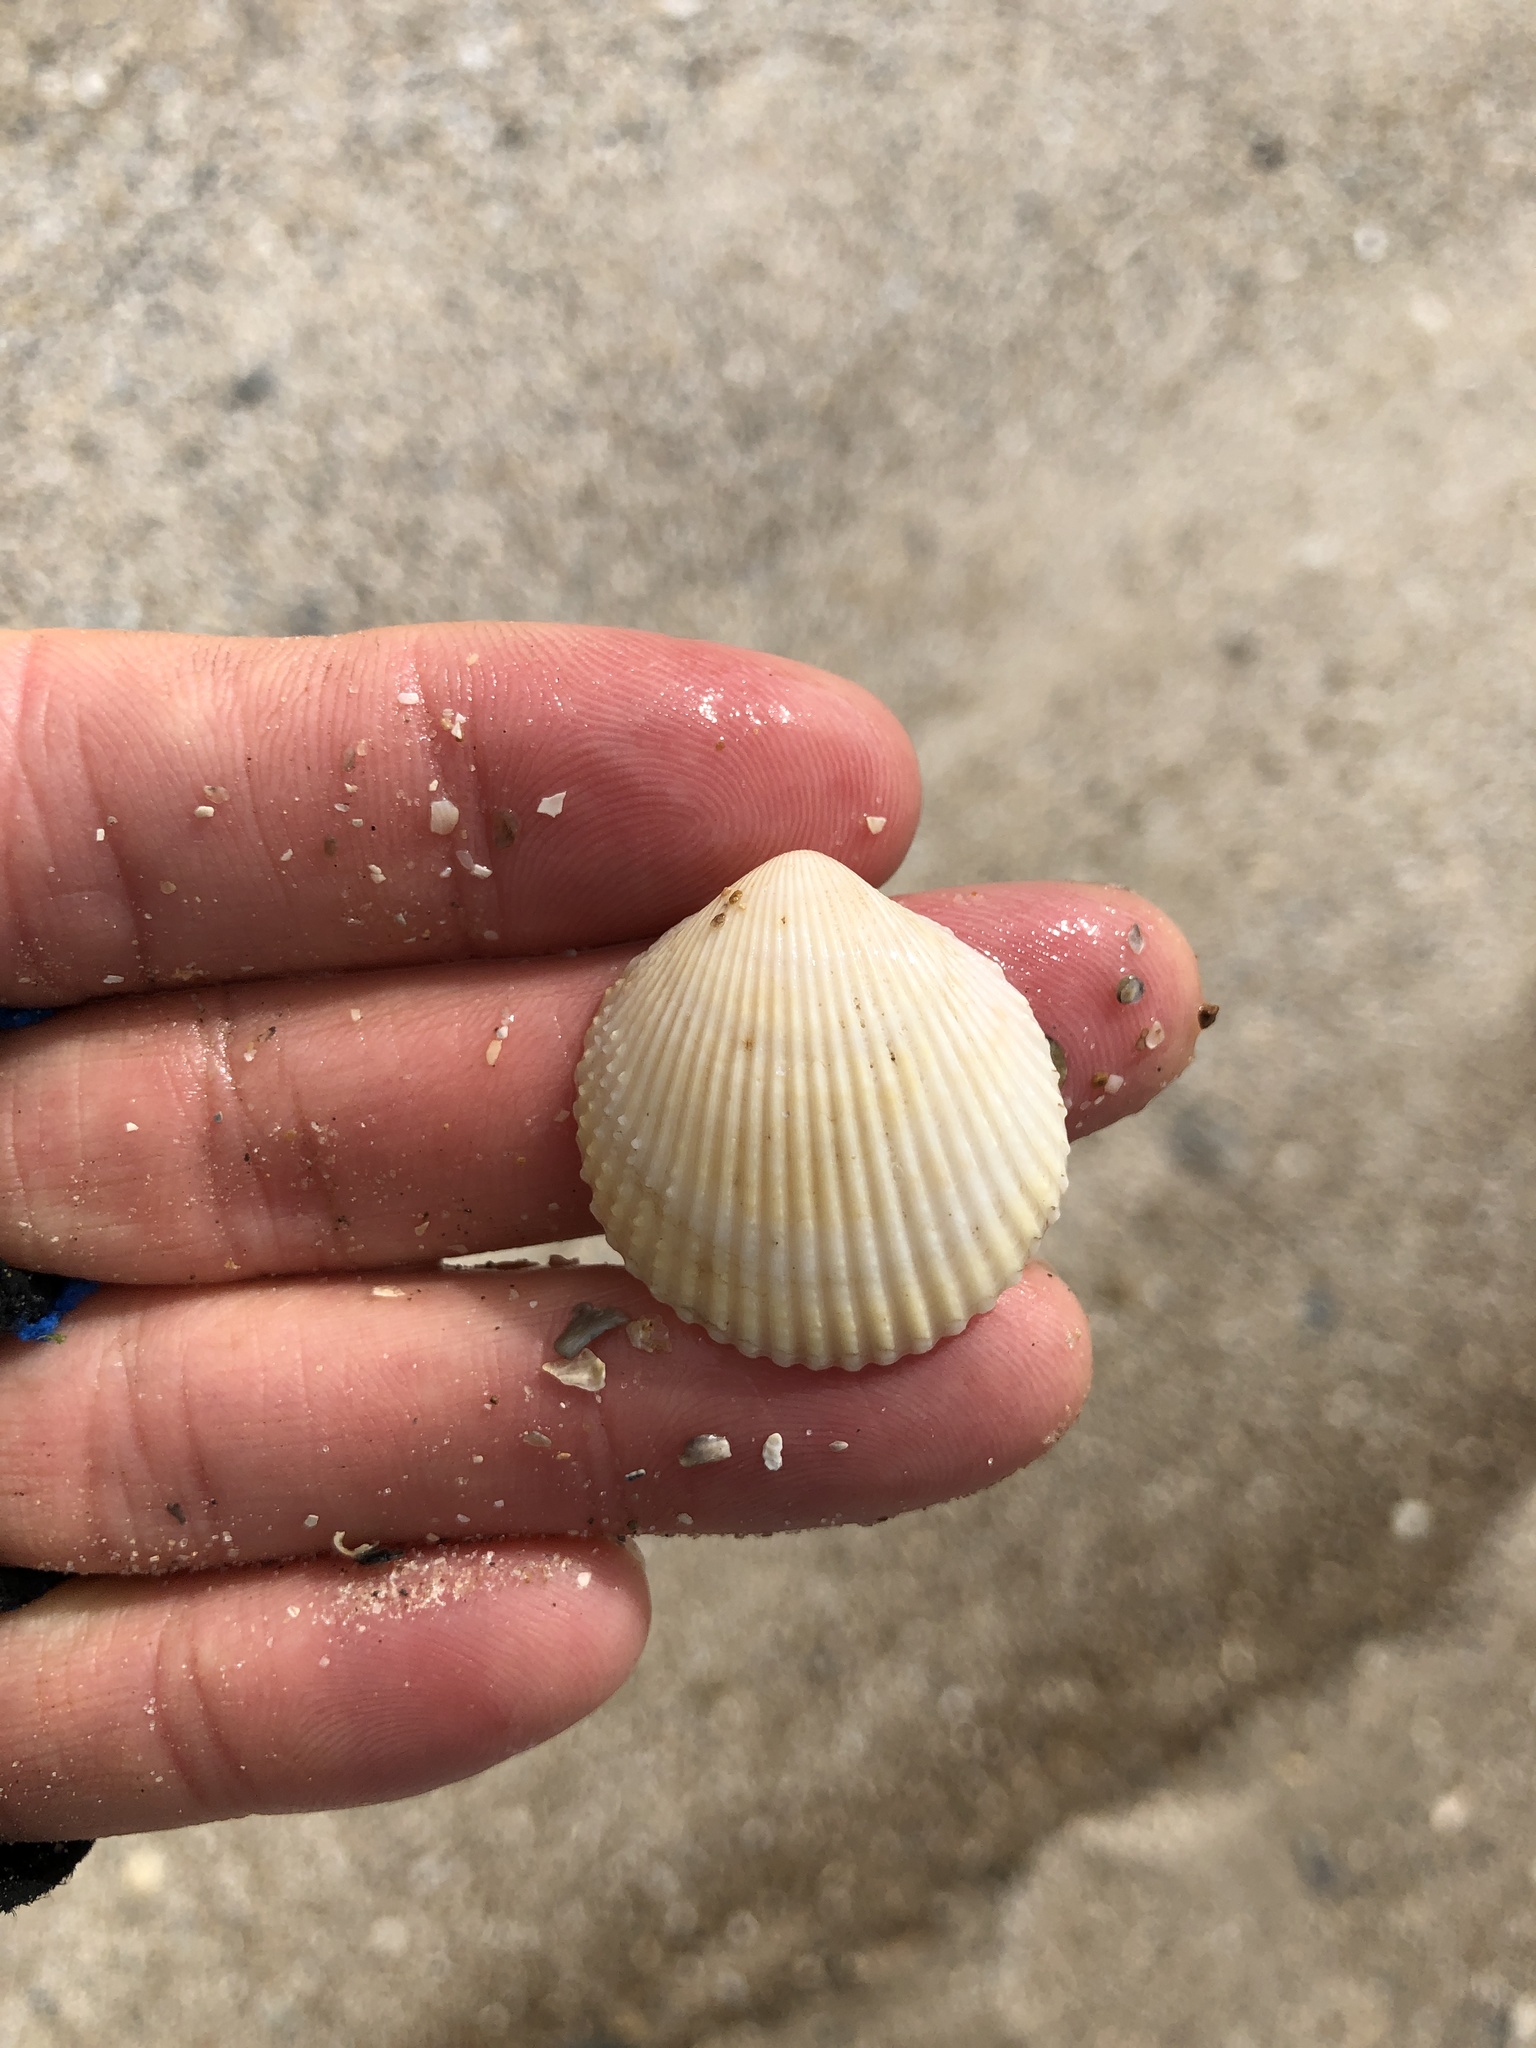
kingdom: Animalia
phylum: Mollusca
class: Bivalvia
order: Cardiida
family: Cardiidae
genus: Dallocardia
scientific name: Dallocardia muricata
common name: Yellow pricklycockle
